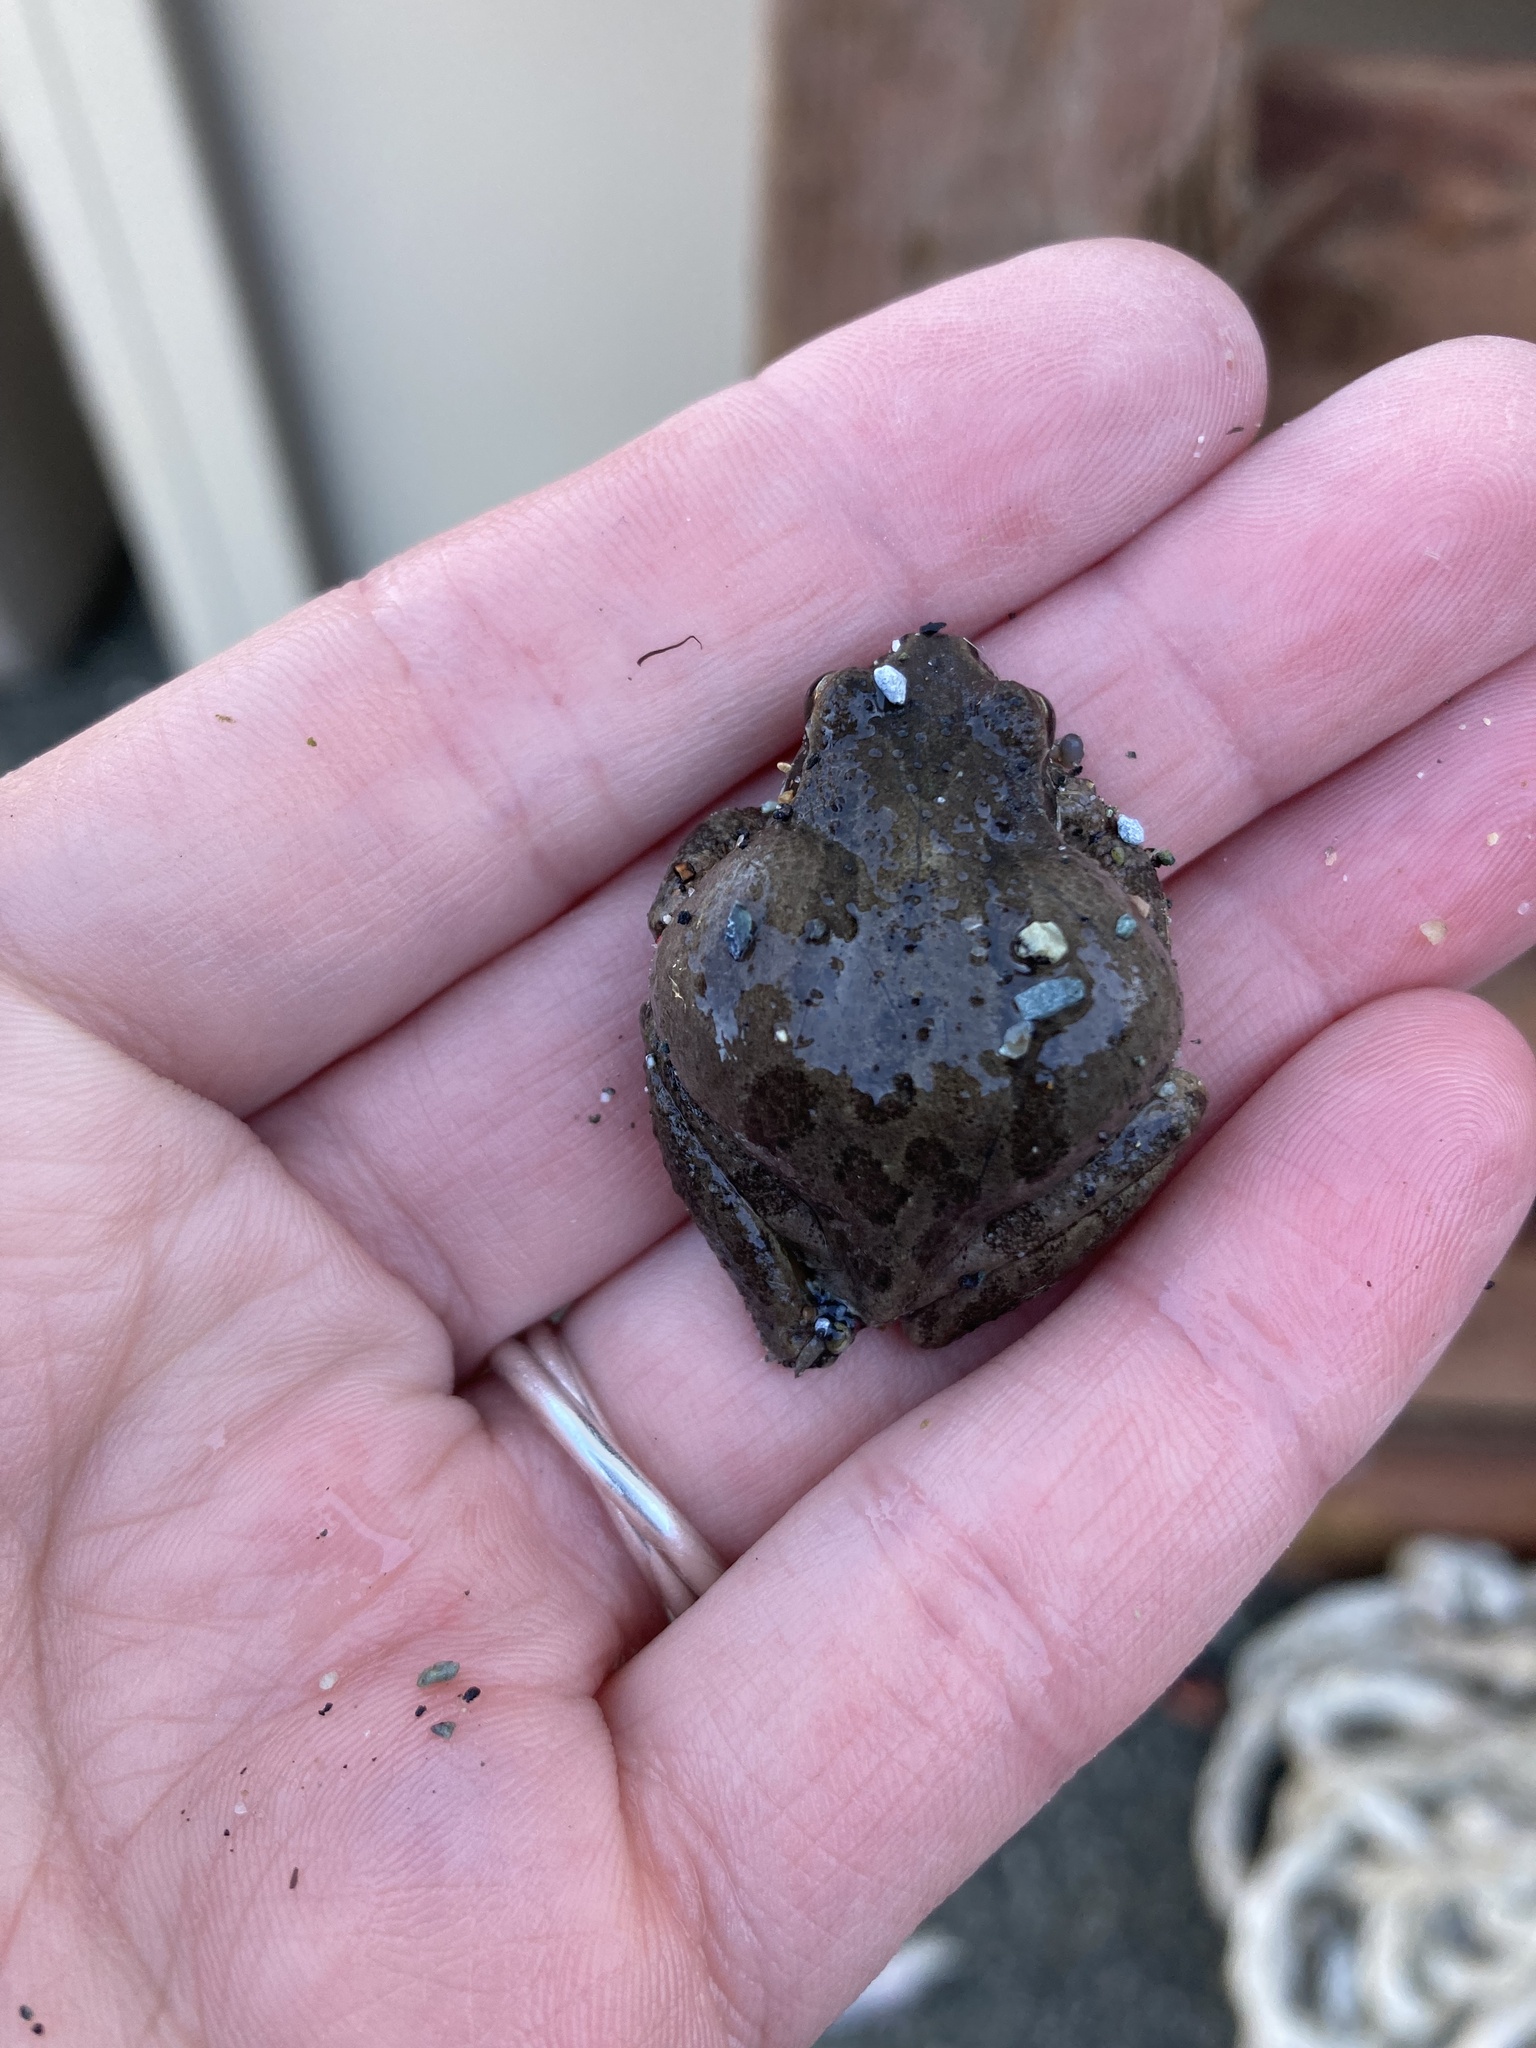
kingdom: Animalia
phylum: Chordata
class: Amphibia
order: Anura
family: Hylidae
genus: Pseudacris
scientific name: Pseudacris regilla
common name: Pacific chorus frog
